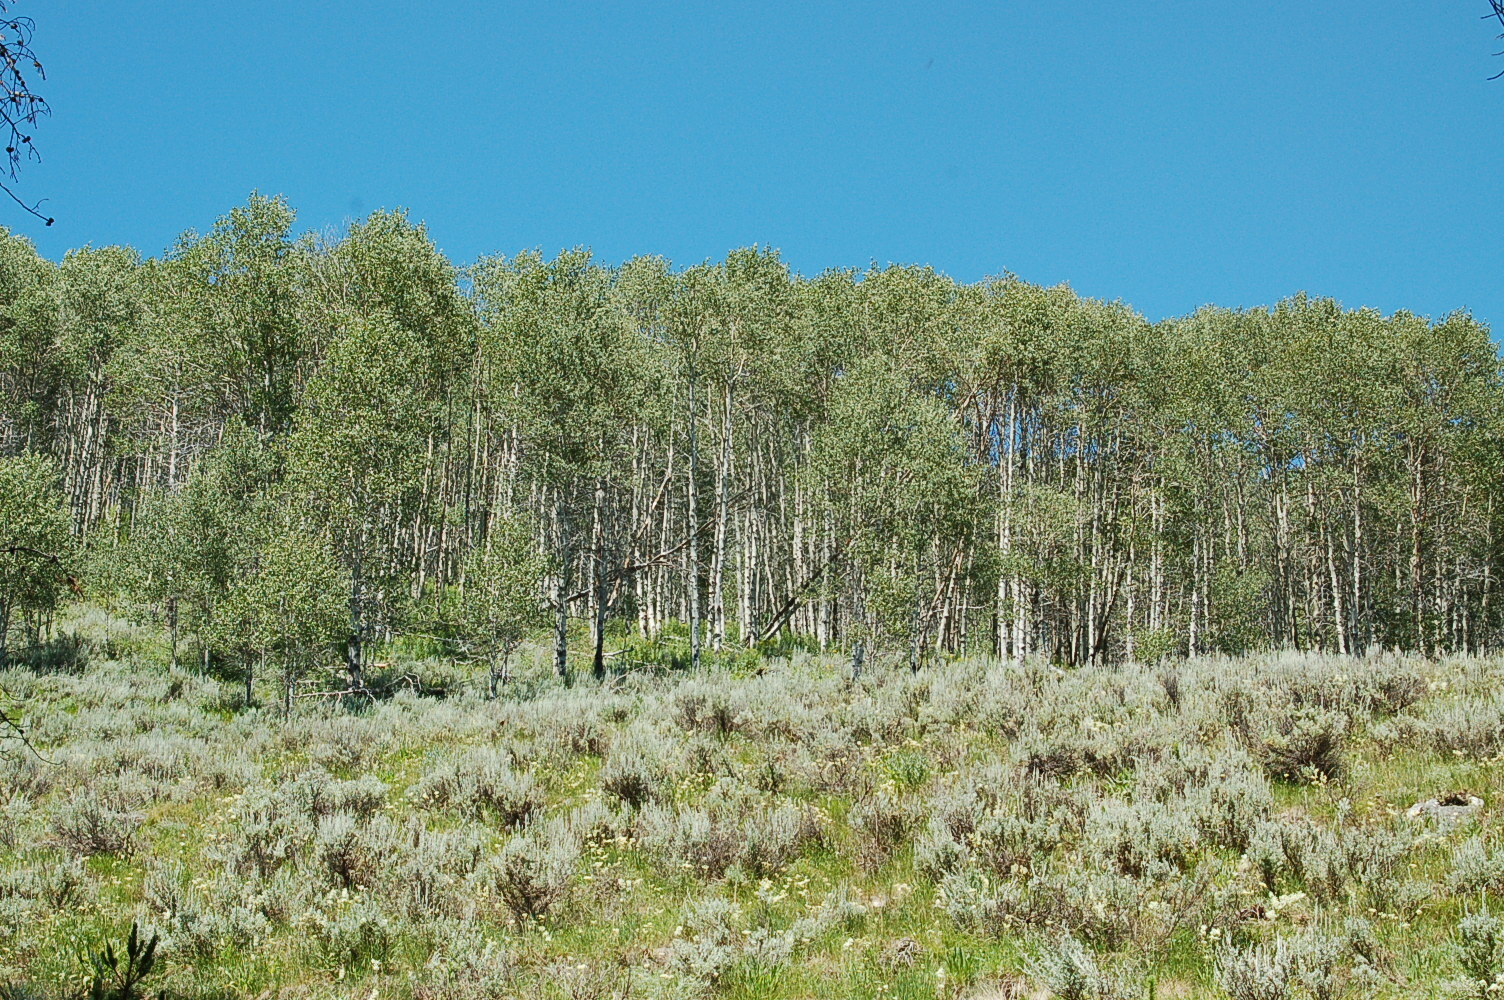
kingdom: Plantae
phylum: Tracheophyta
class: Magnoliopsida
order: Malpighiales
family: Salicaceae
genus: Populus
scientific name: Populus tremuloides
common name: Quaking aspen
